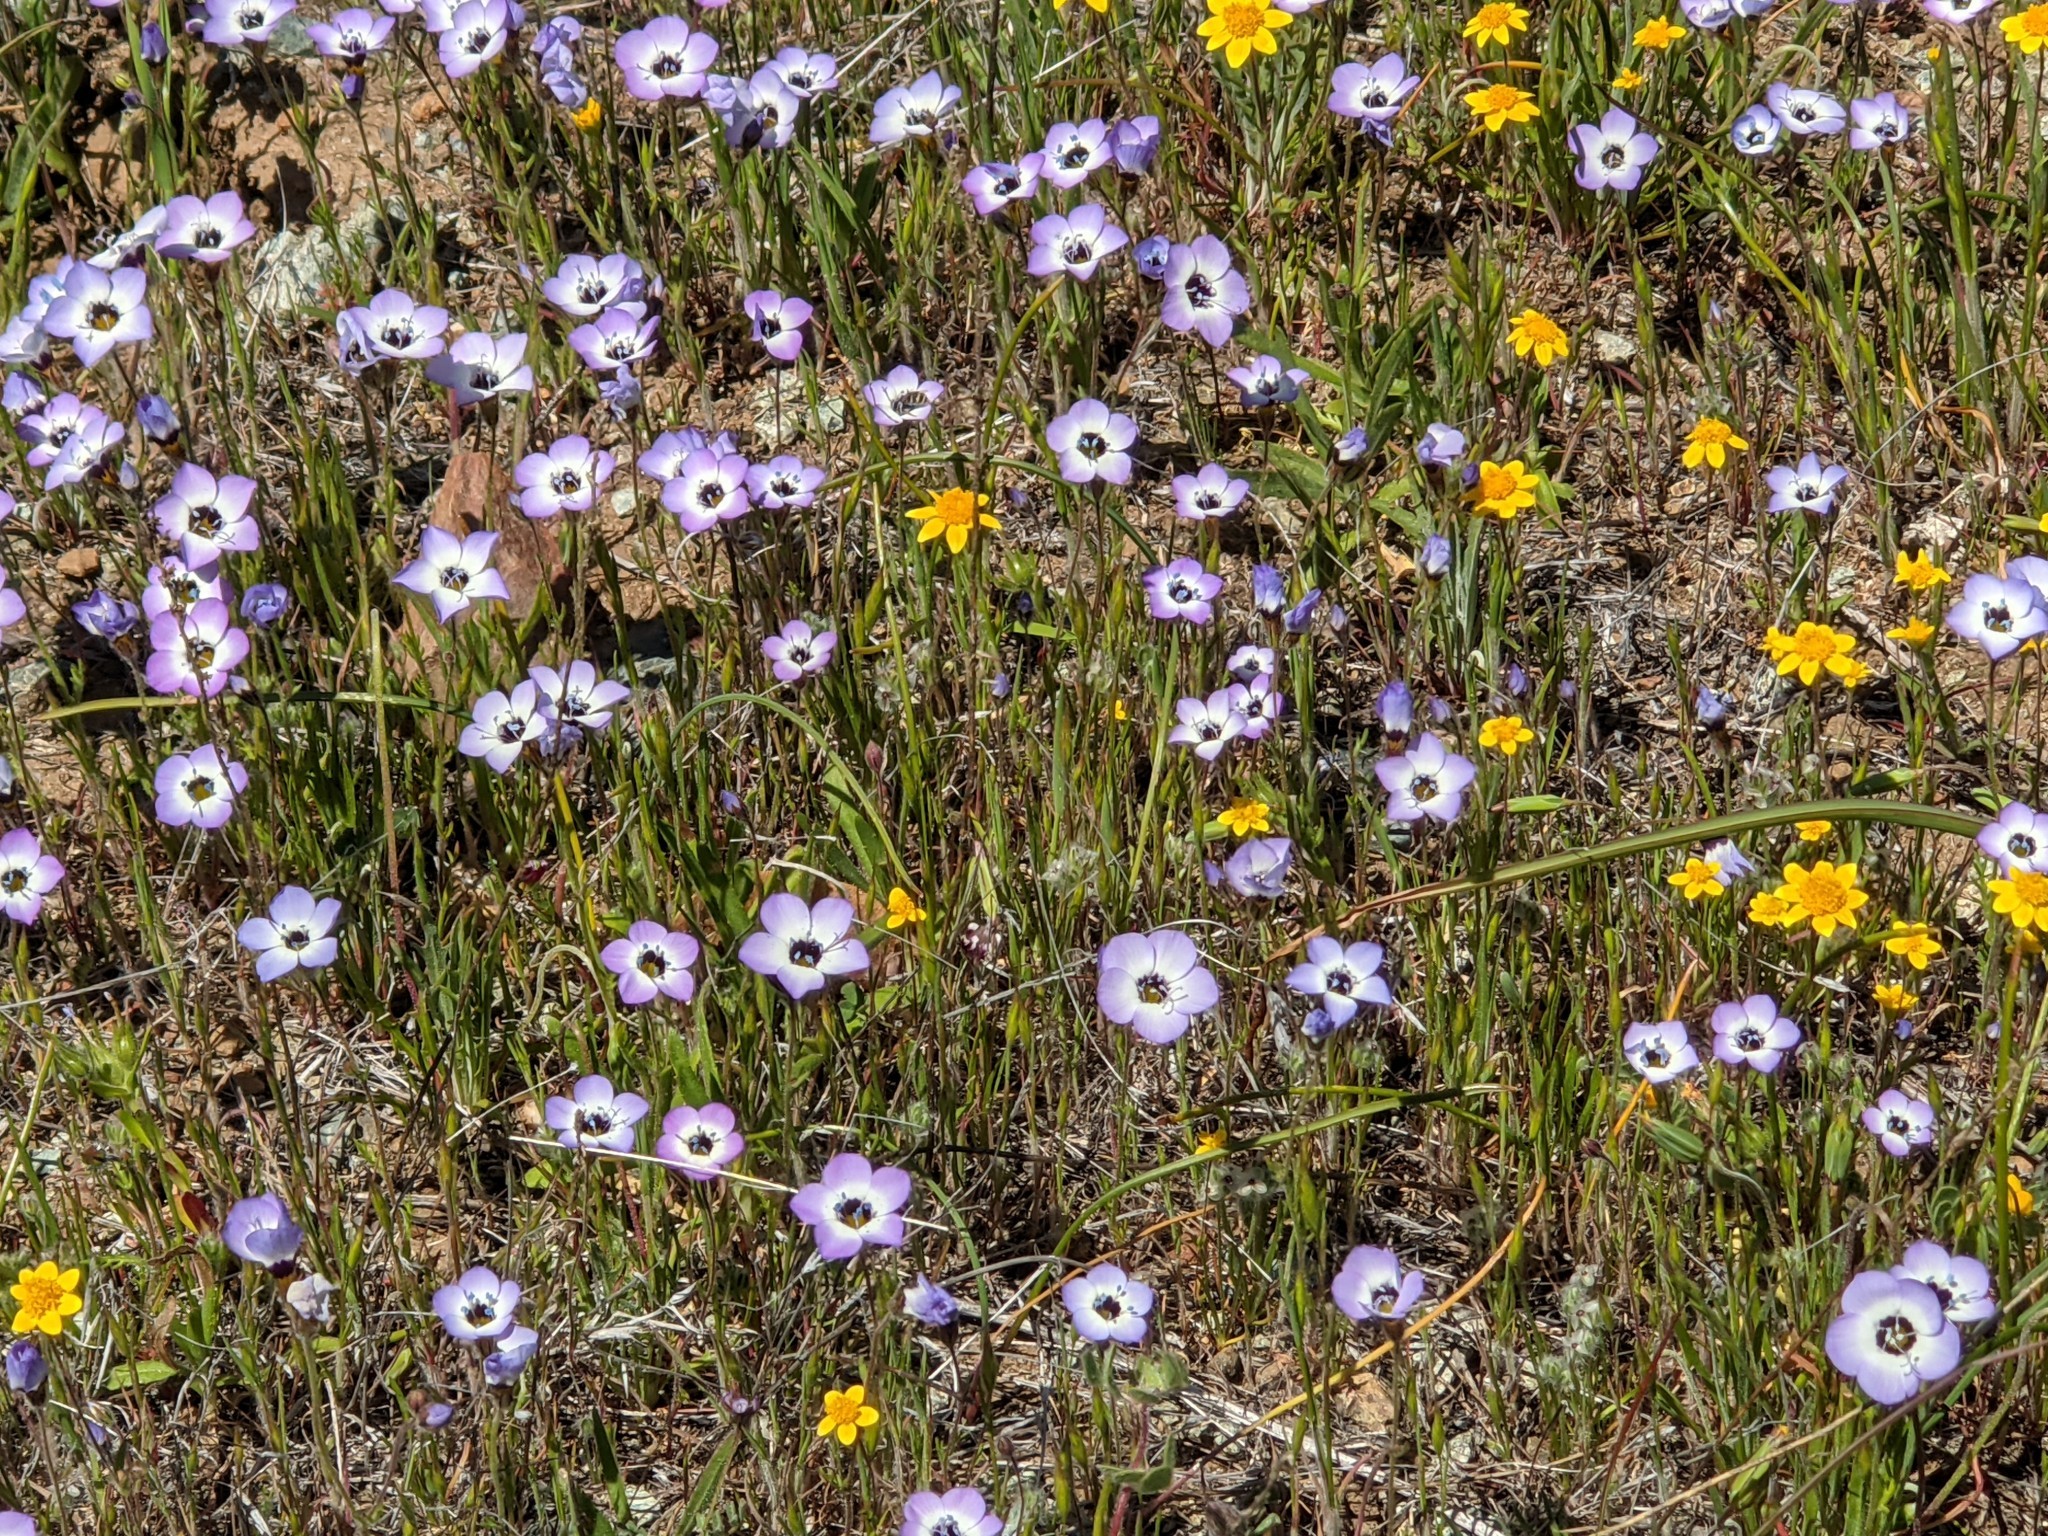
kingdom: Plantae
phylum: Tracheophyta
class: Magnoliopsida
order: Ericales
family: Polemoniaceae
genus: Gilia
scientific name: Gilia tricolor
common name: Bird's-eyes
